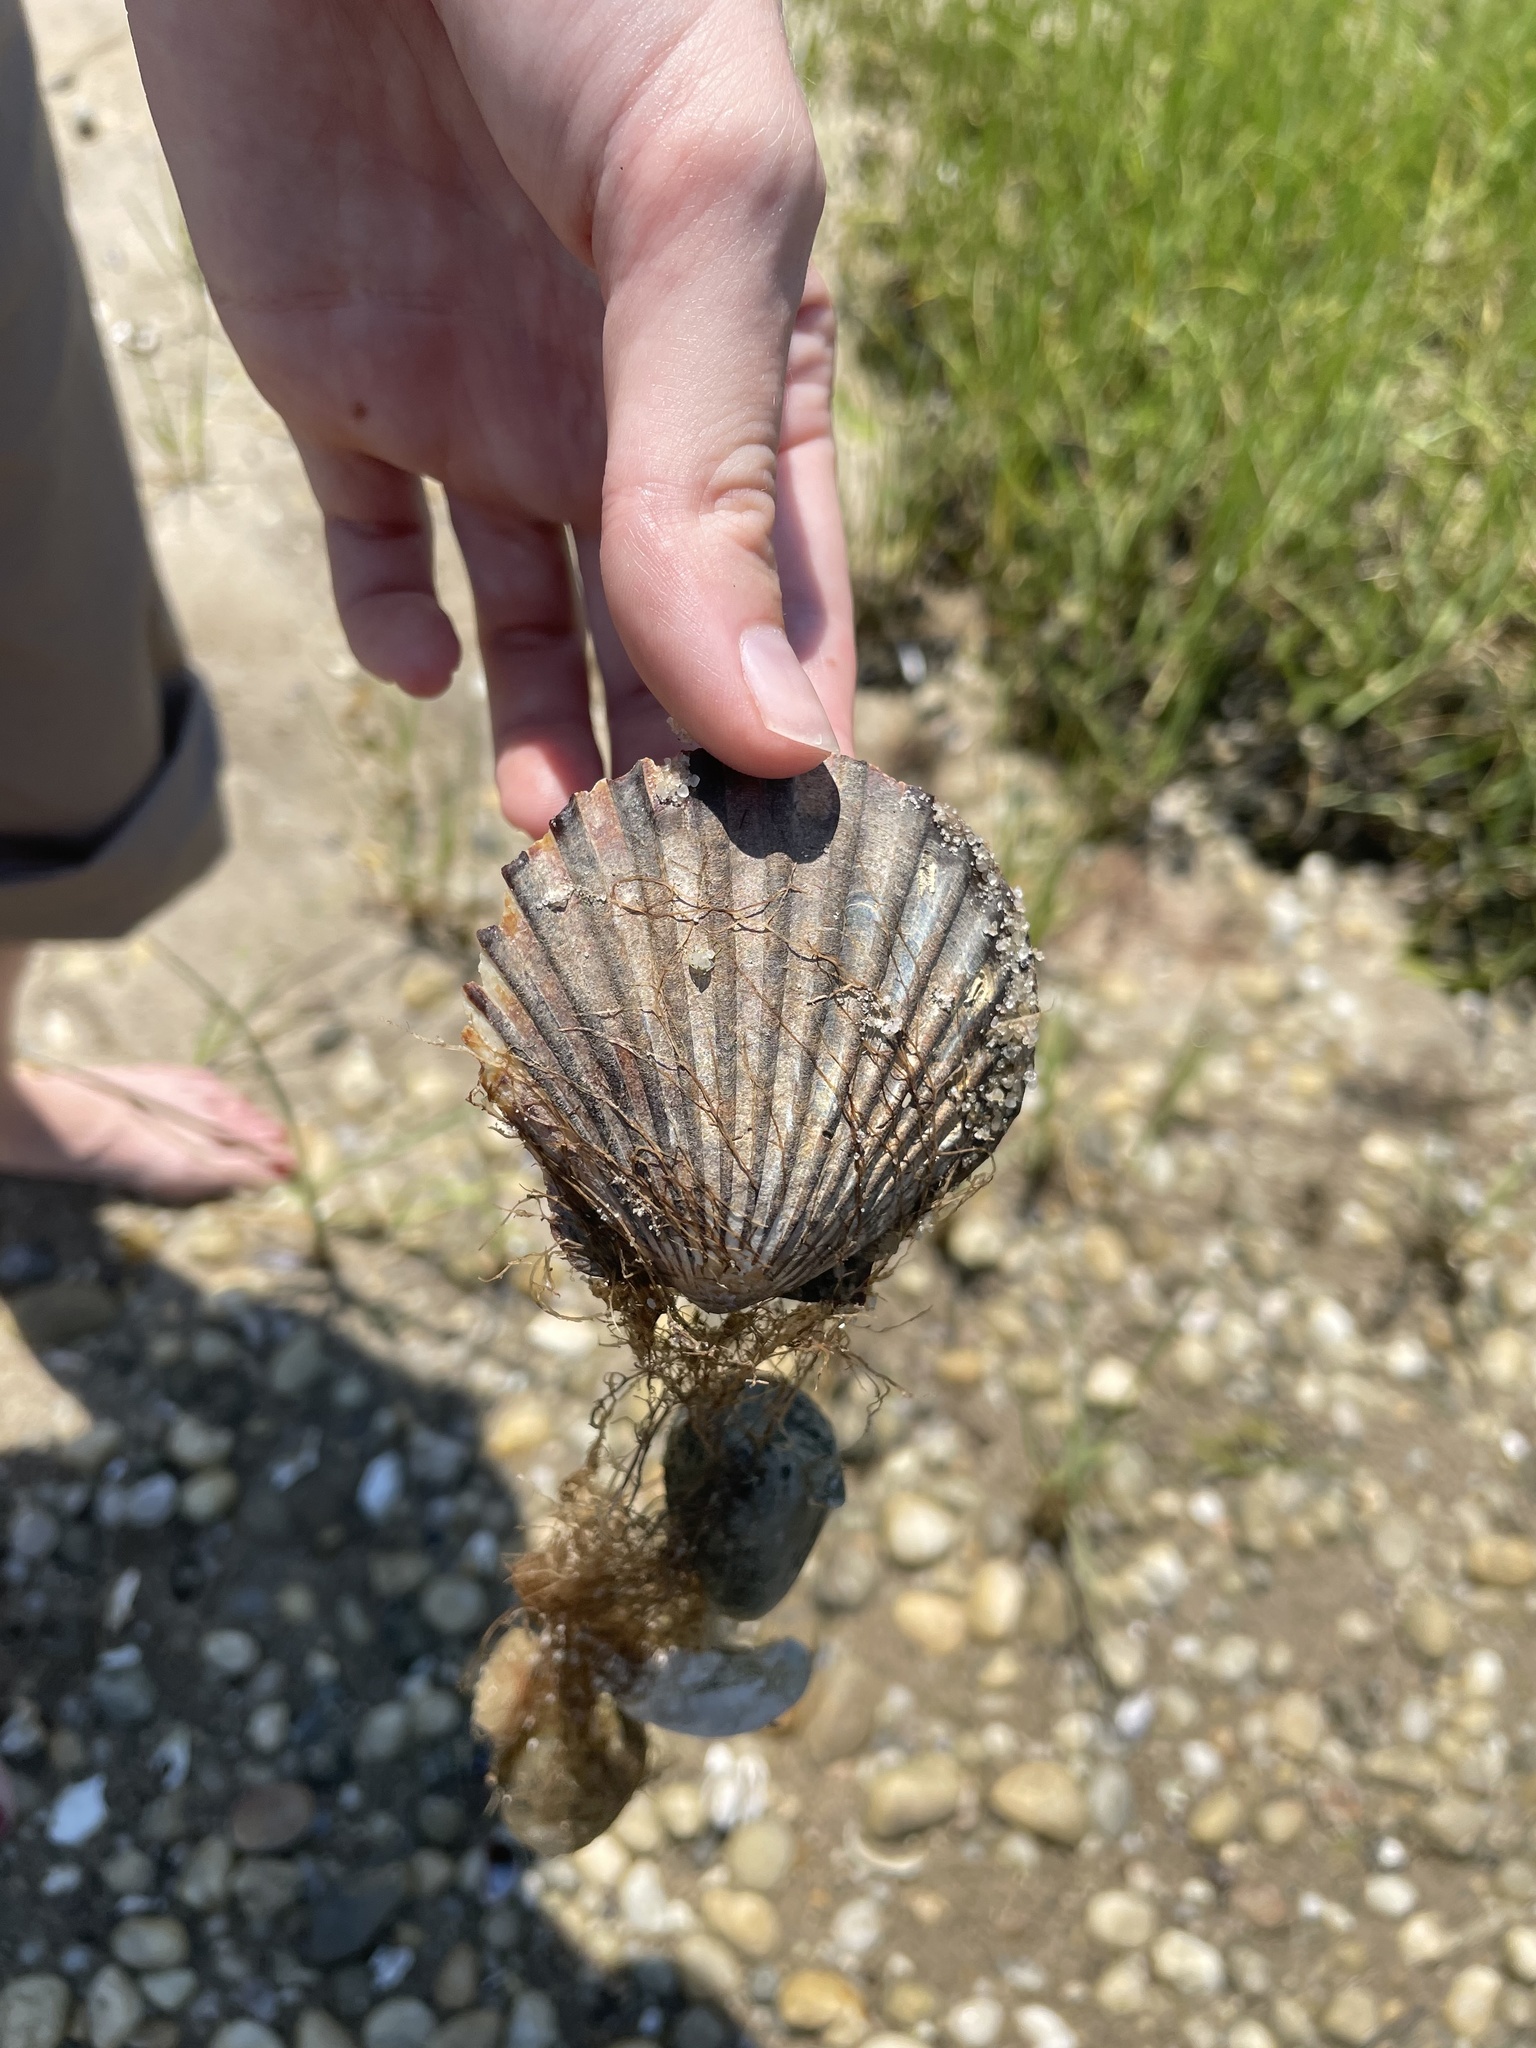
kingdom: Animalia
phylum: Mollusca
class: Bivalvia
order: Pectinida
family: Pectinidae
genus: Argopecten
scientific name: Argopecten irradians
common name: Atlantic bay scallop
